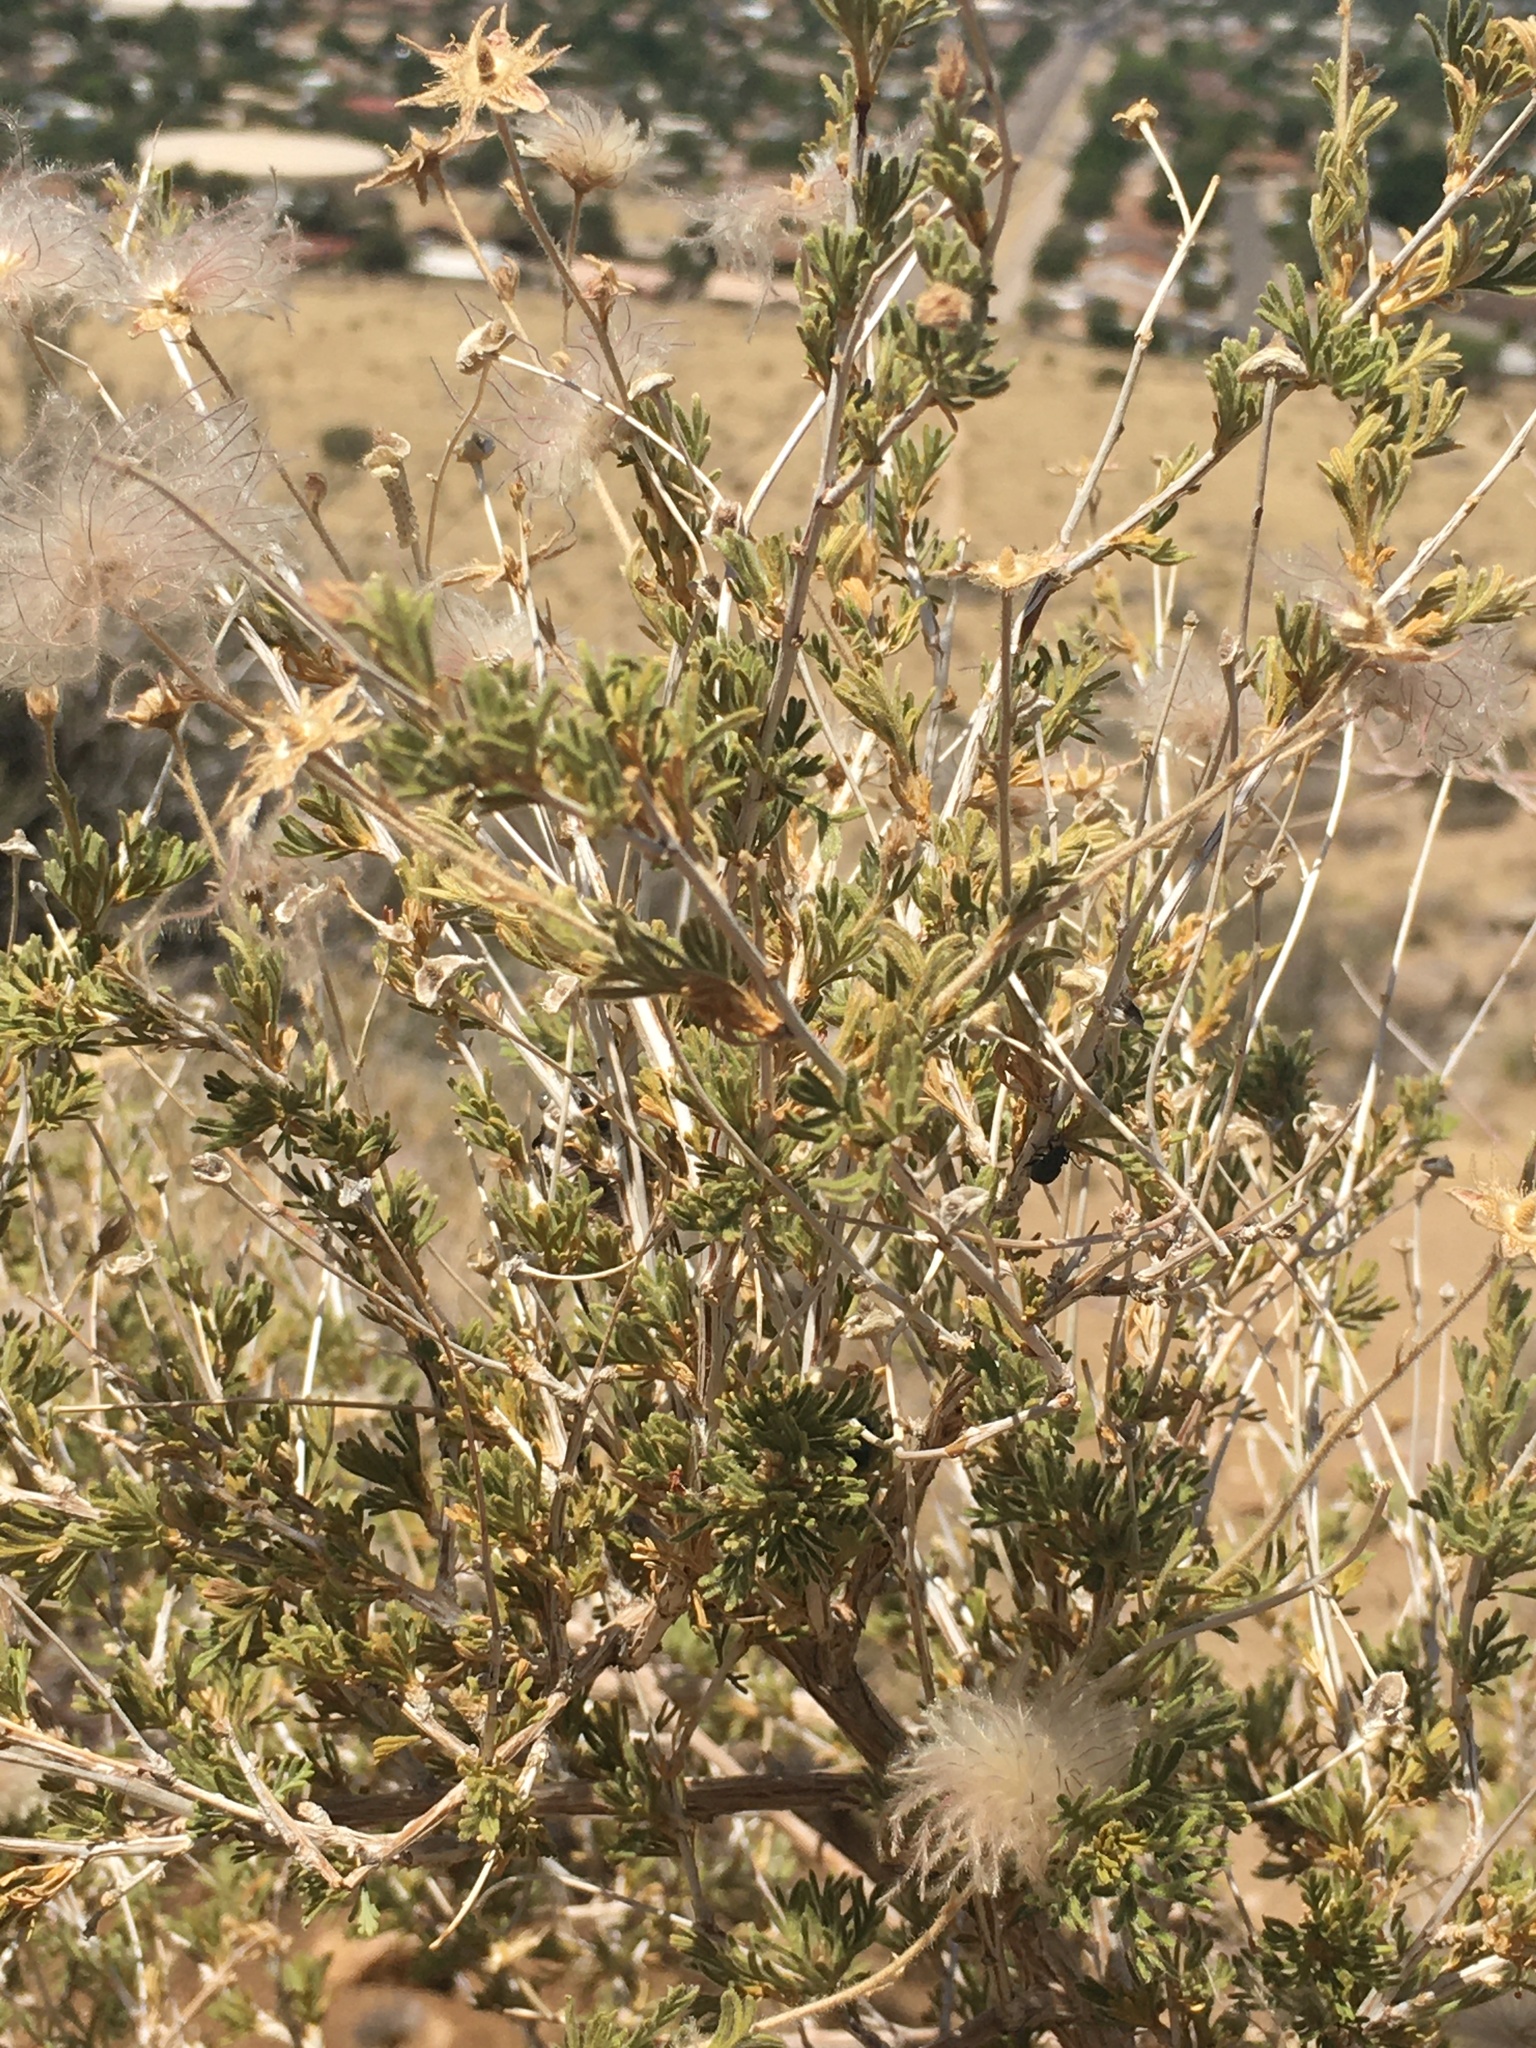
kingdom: Plantae
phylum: Tracheophyta
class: Magnoliopsida
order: Rosales
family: Rosaceae
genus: Fallugia
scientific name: Fallugia paradoxa
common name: Apache-plume
